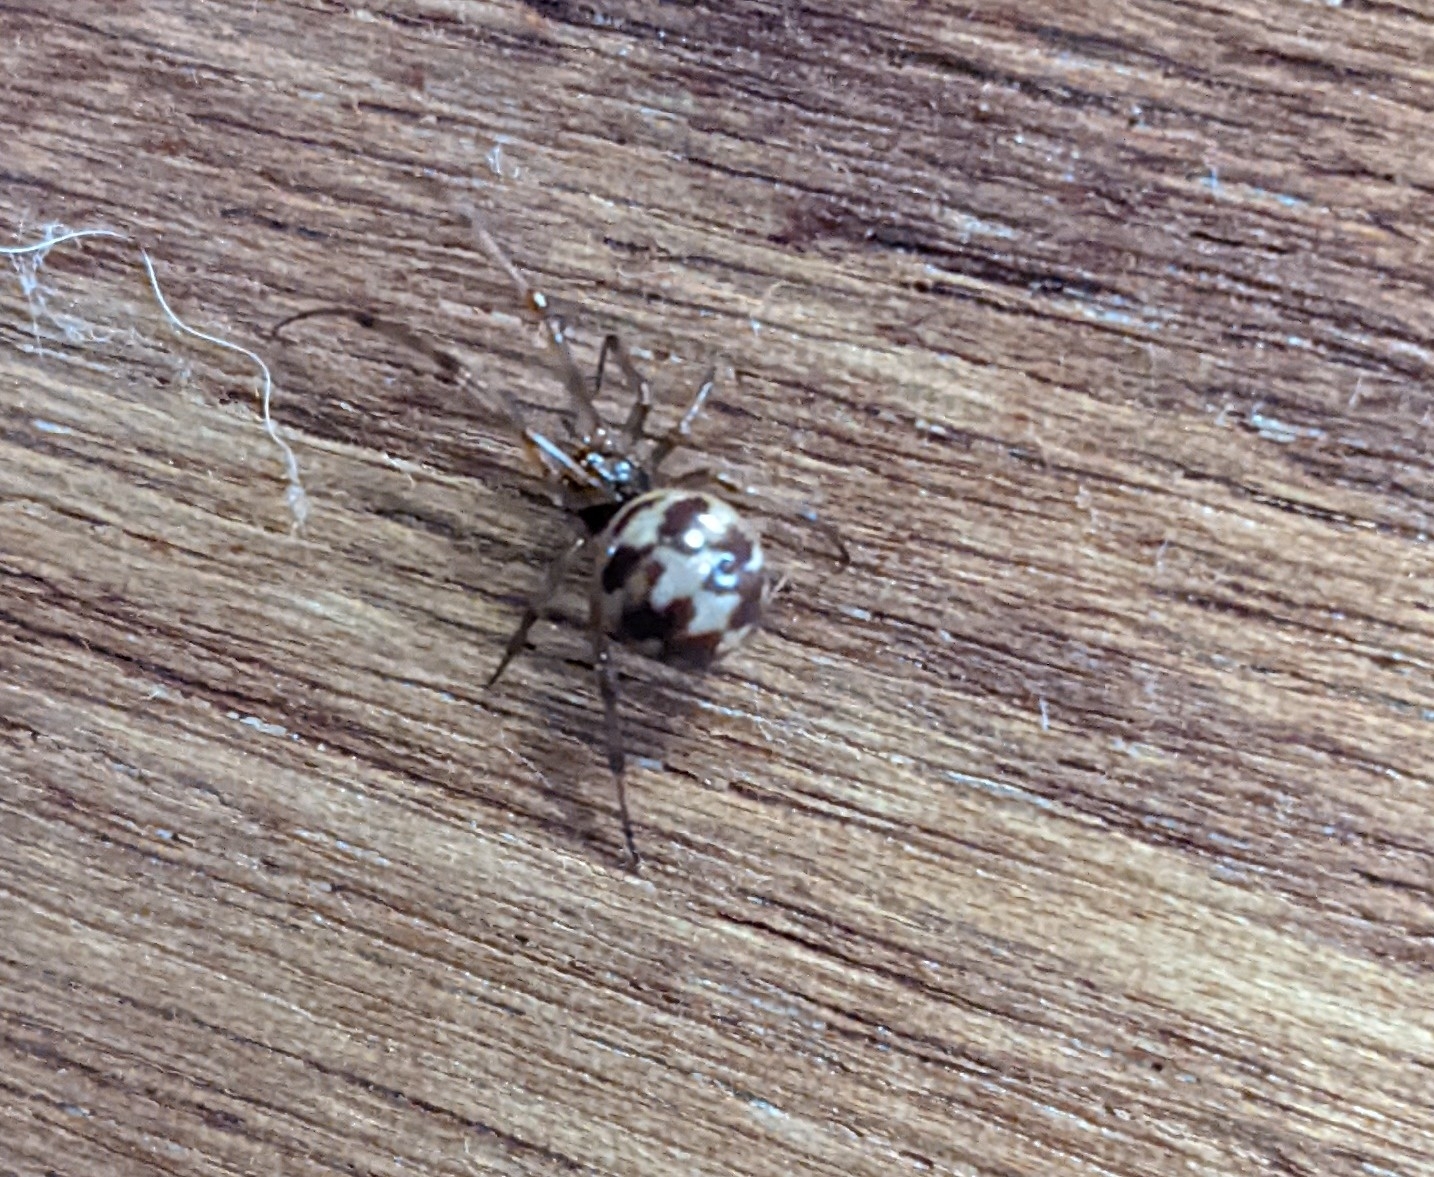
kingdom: Animalia
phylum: Arthropoda
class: Arachnida
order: Araneae
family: Theridiidae
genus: Steatoda
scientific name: Steatoda triangulosa
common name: Triangulate bud spider
